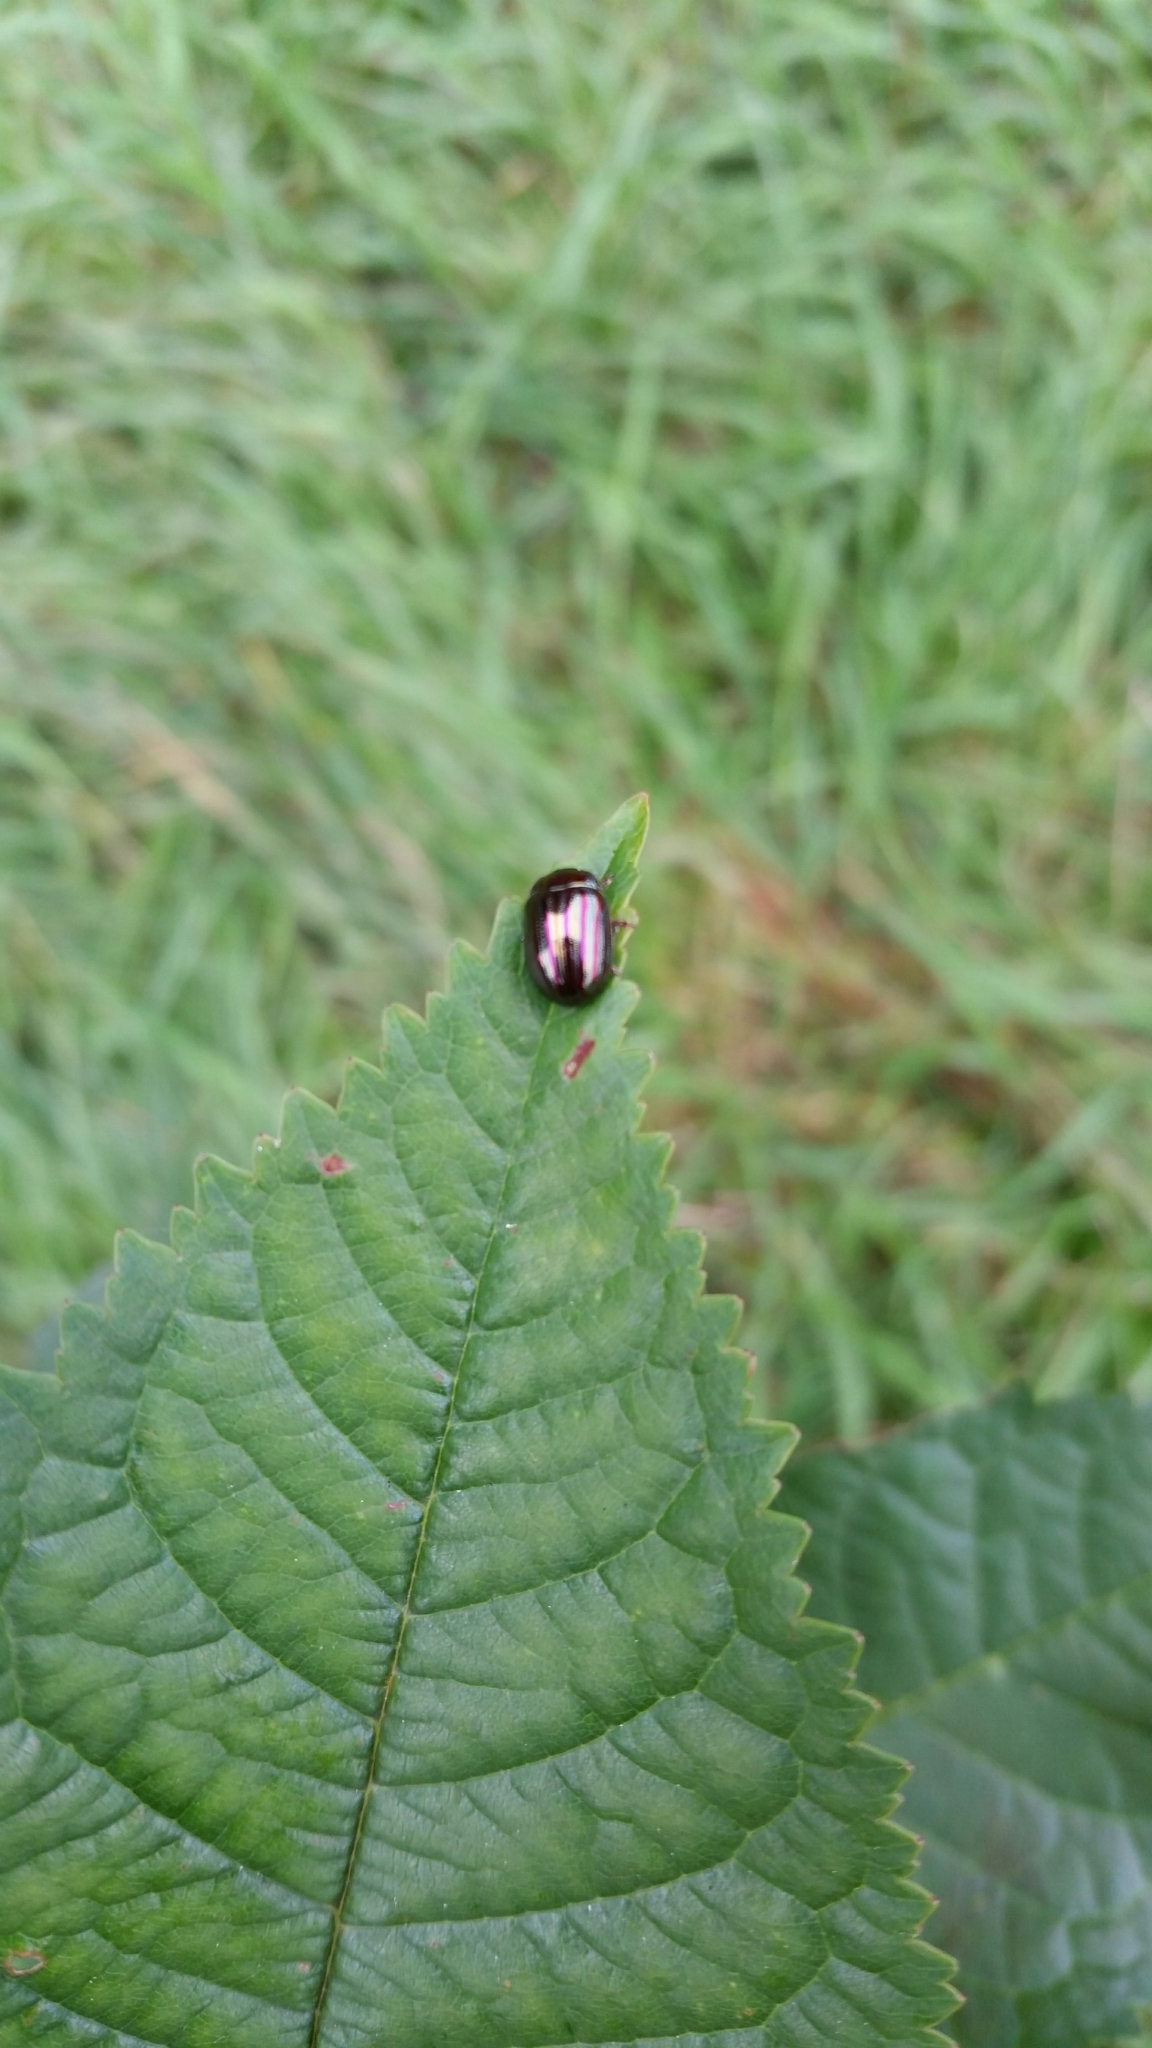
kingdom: Animalia
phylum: Arthropoda
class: Insecta
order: Coleoptera
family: Chrysomelidae
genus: Chrysolina
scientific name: Chrysolina americana
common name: Rosemary beetle
